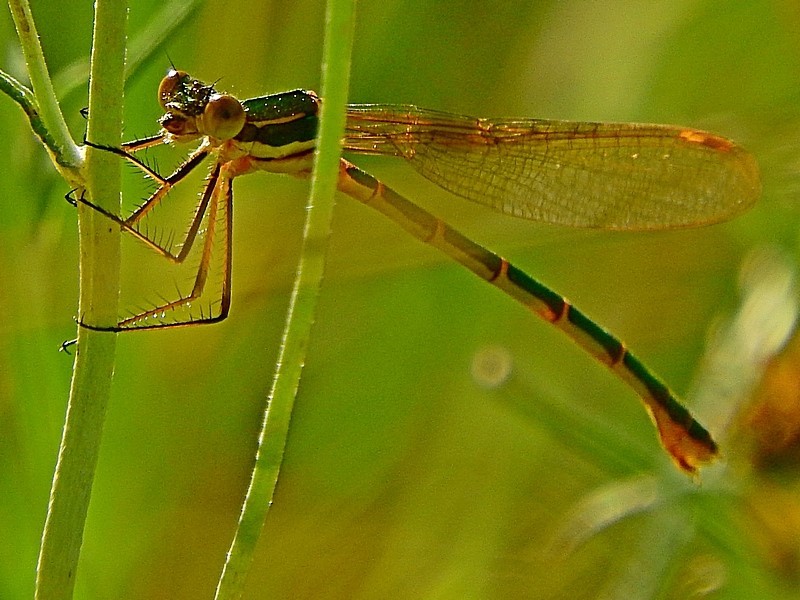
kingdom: Animalia
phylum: Arthropoda
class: Insecta
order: Odonata
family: Lestidae
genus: Austrolestes
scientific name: Austrolestes cingulatus
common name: Metallic ringtail
